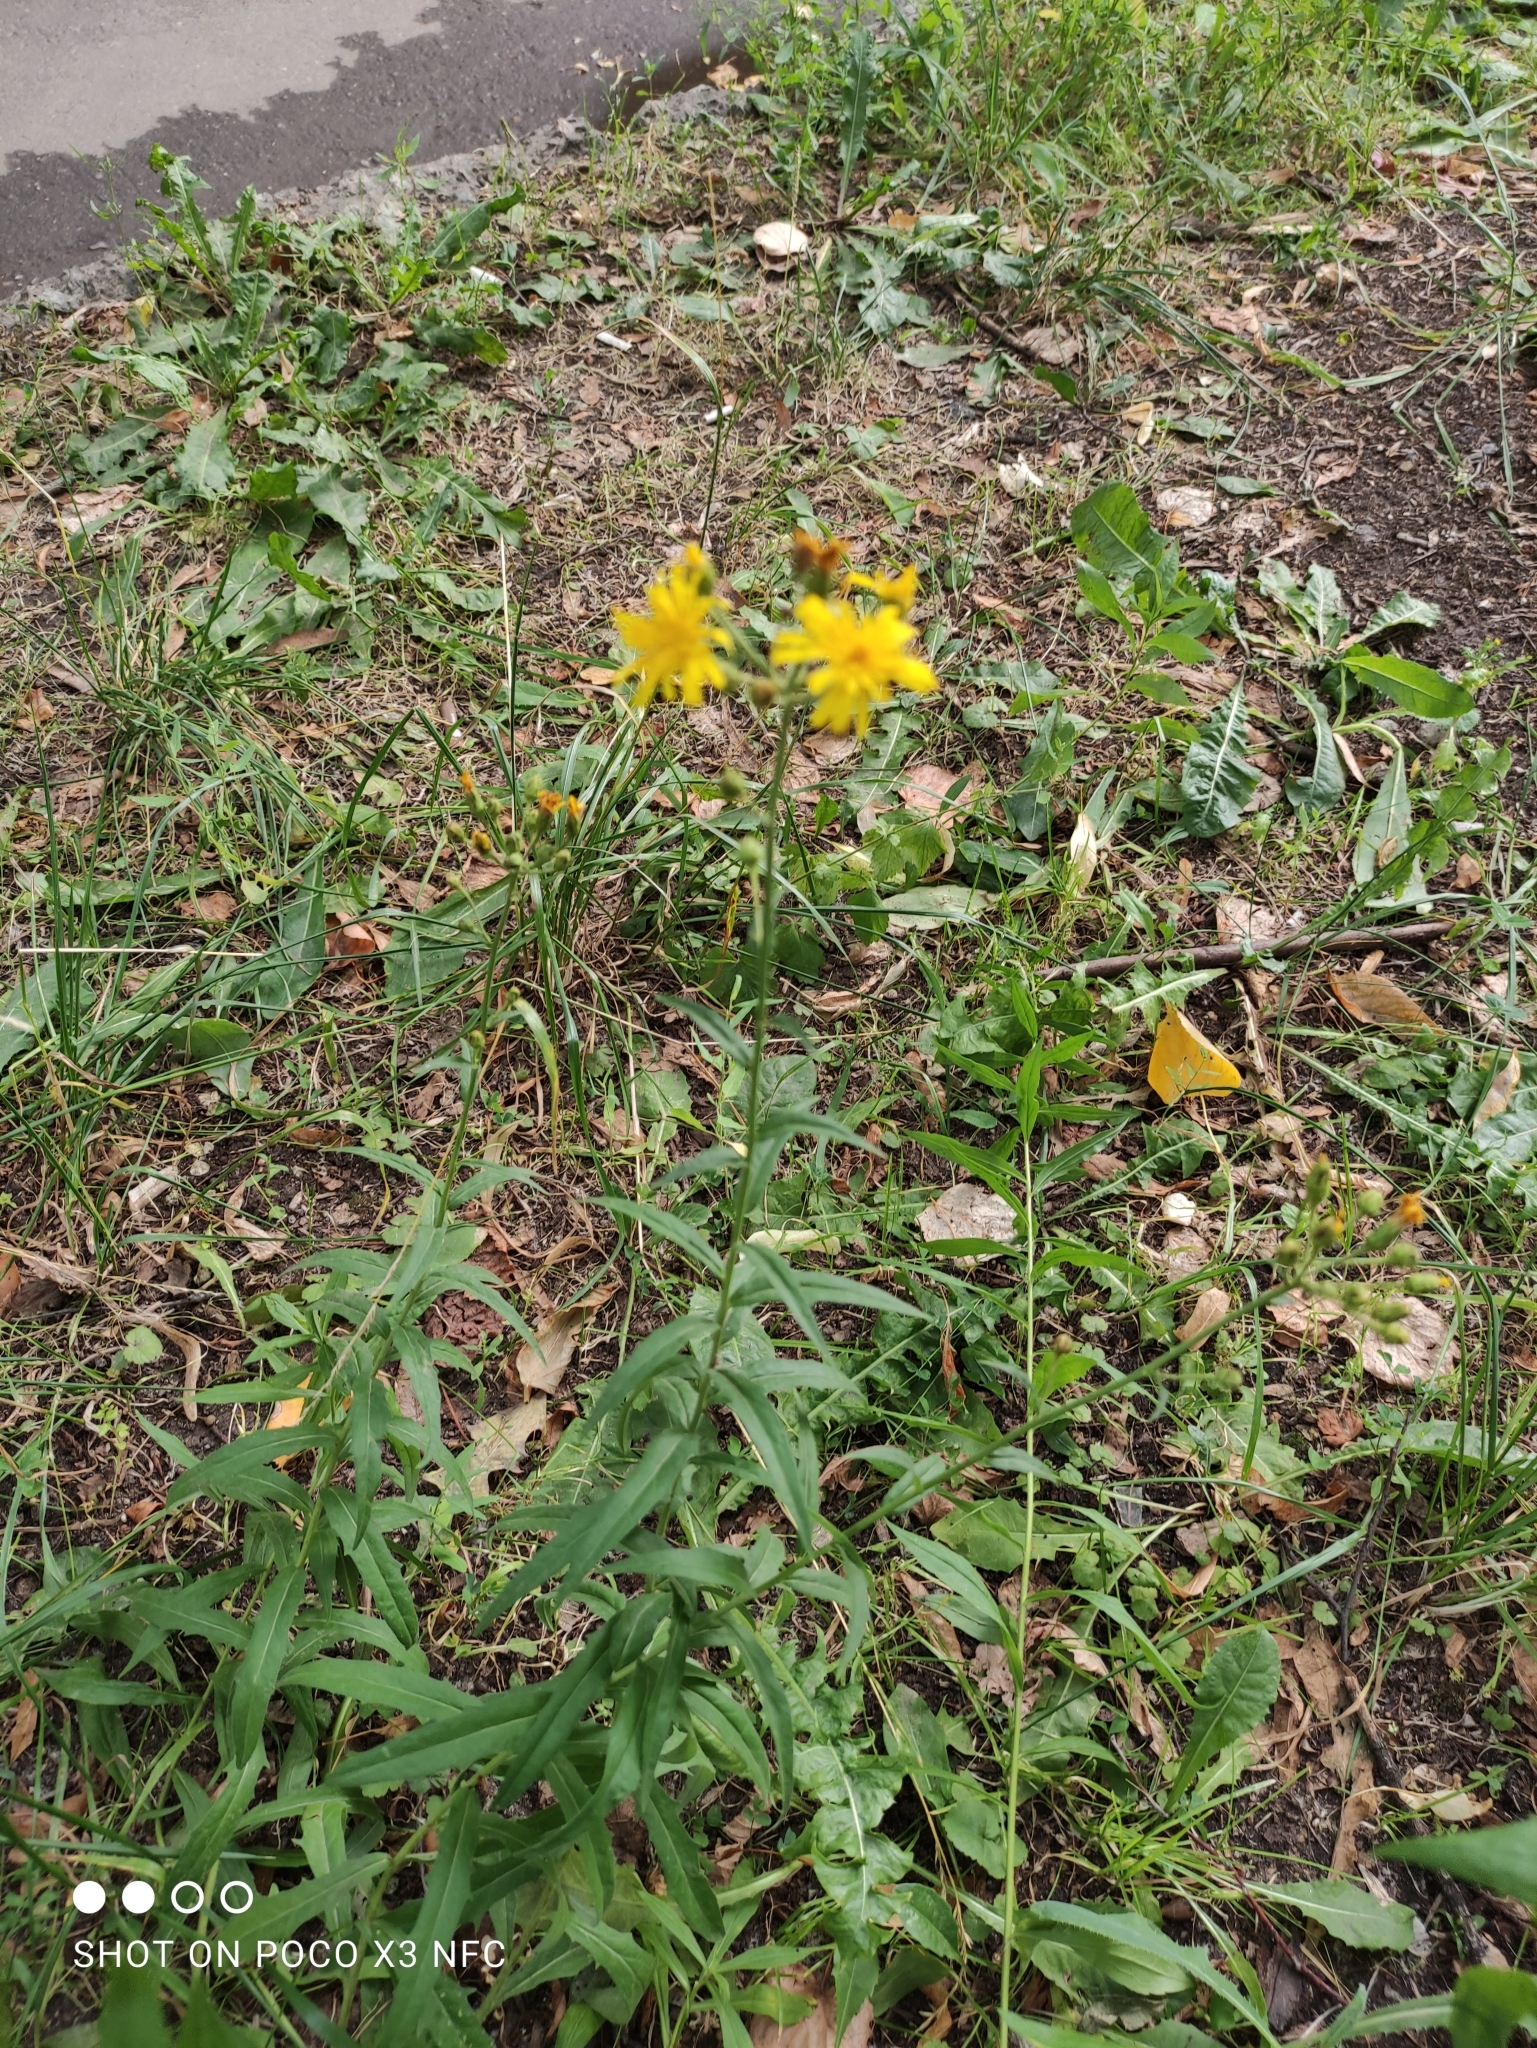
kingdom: Plantae
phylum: Tracheophyta
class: Magnoliopsida
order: Asterales
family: Asteraceae
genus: Hieracium
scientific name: Hieracium umbellatum
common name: Northern hawkweed
